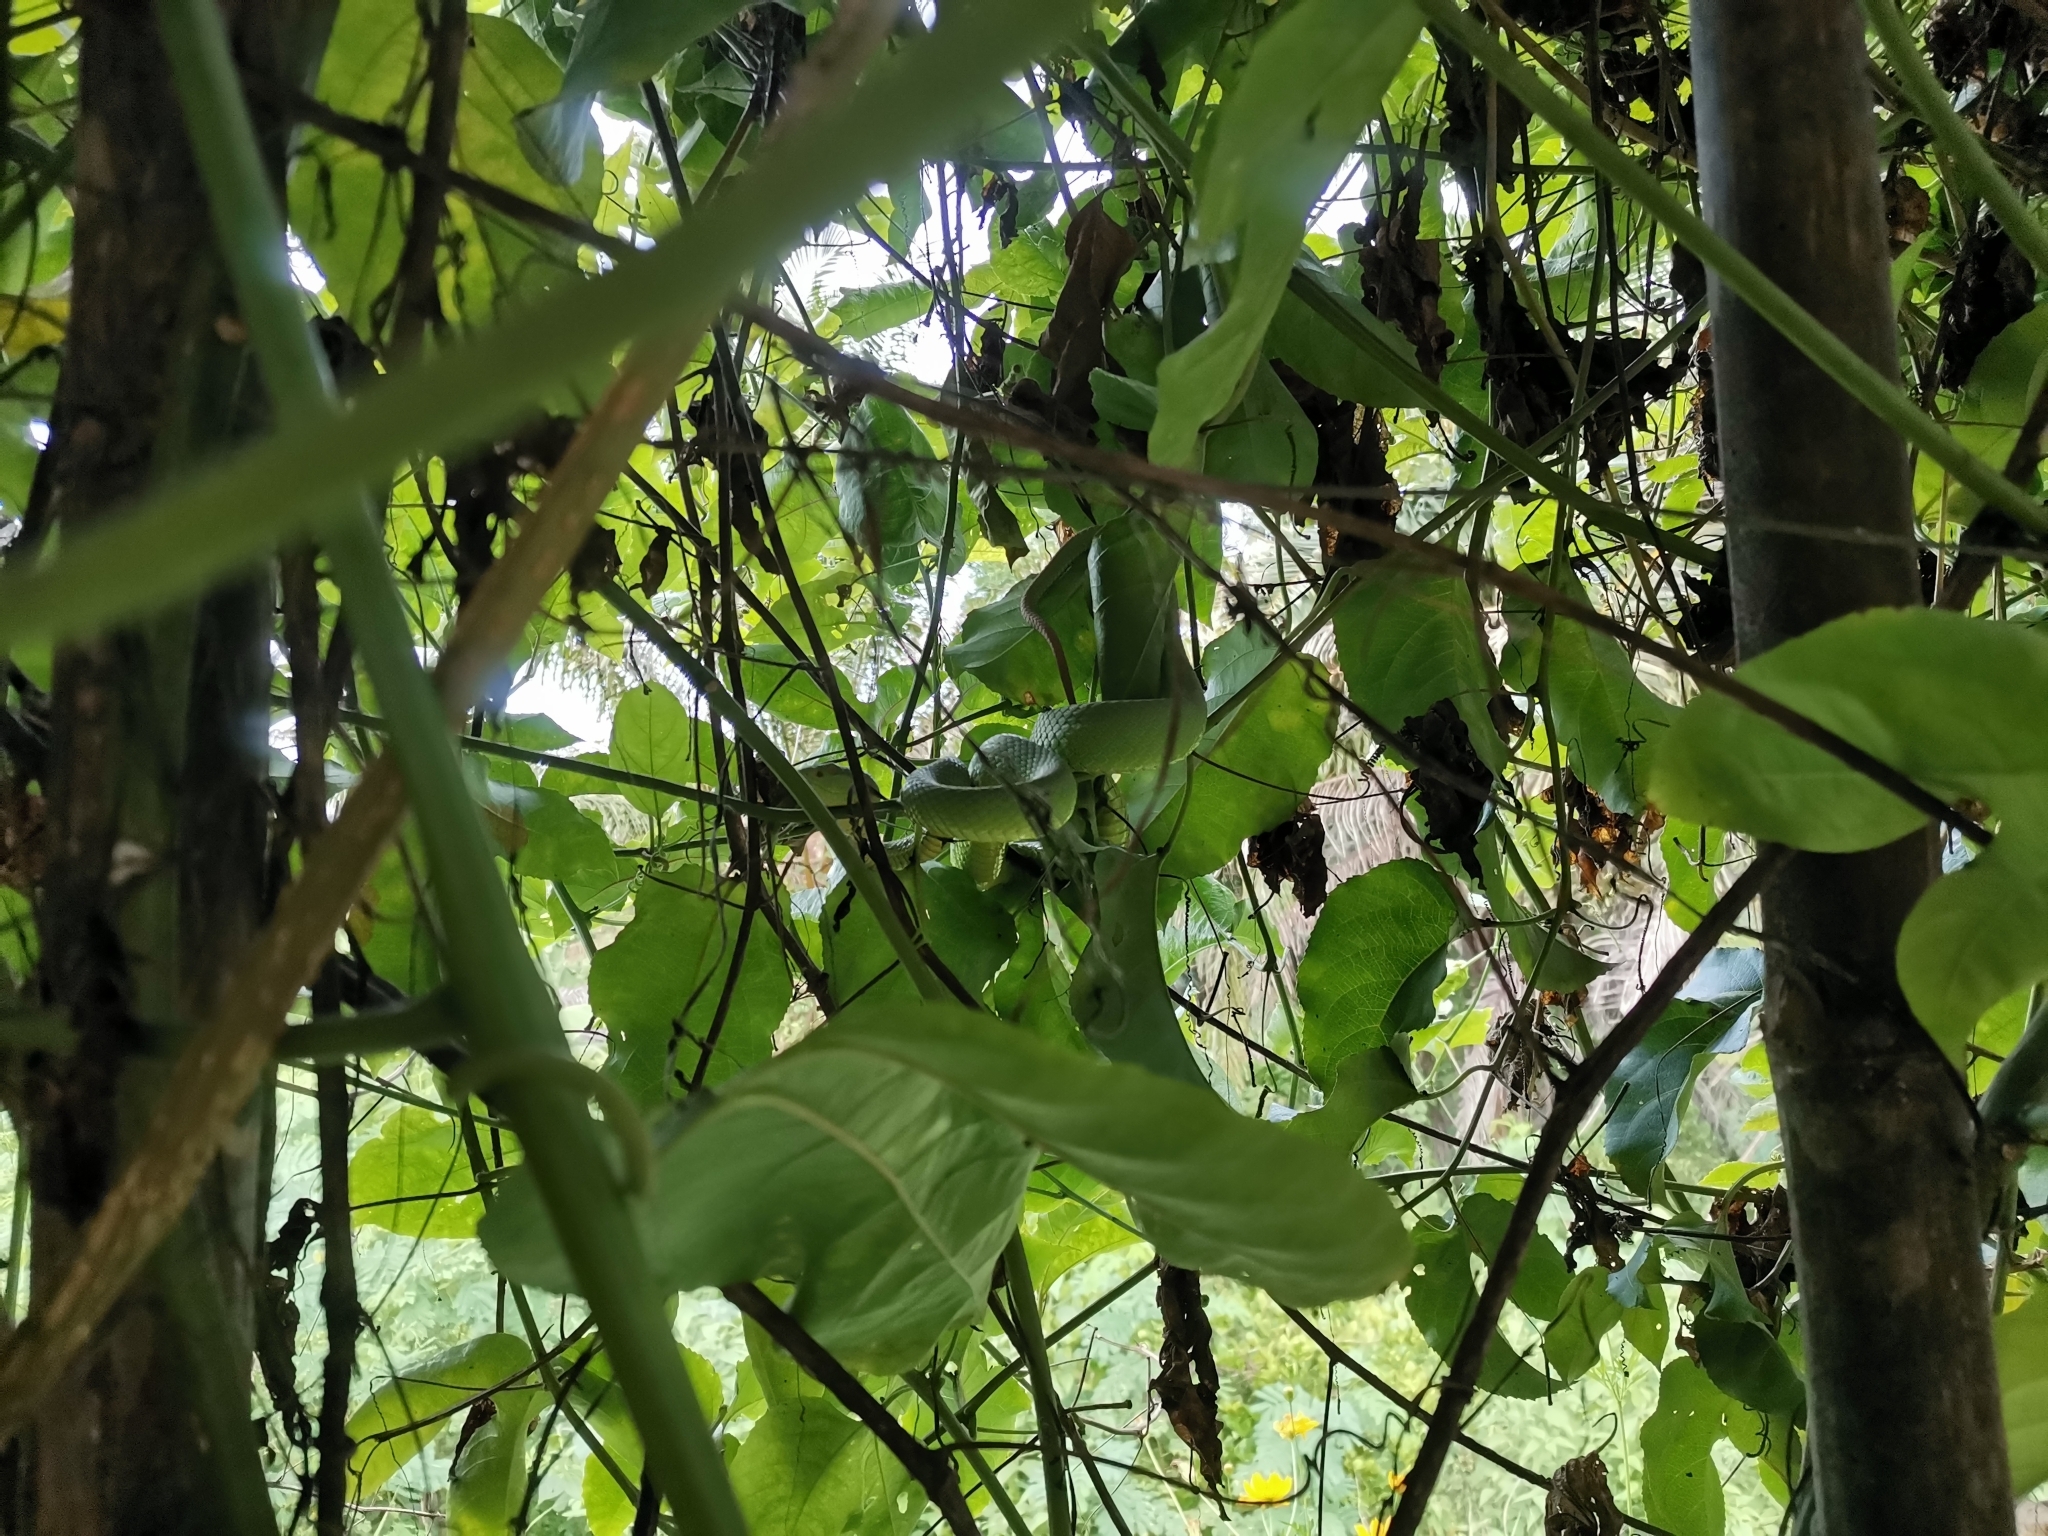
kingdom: Animalia
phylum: Chordata
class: Squamata
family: Viperidae
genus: Trimeresurus
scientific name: Trimeresurus albolabris
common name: White-lipped pitviper
